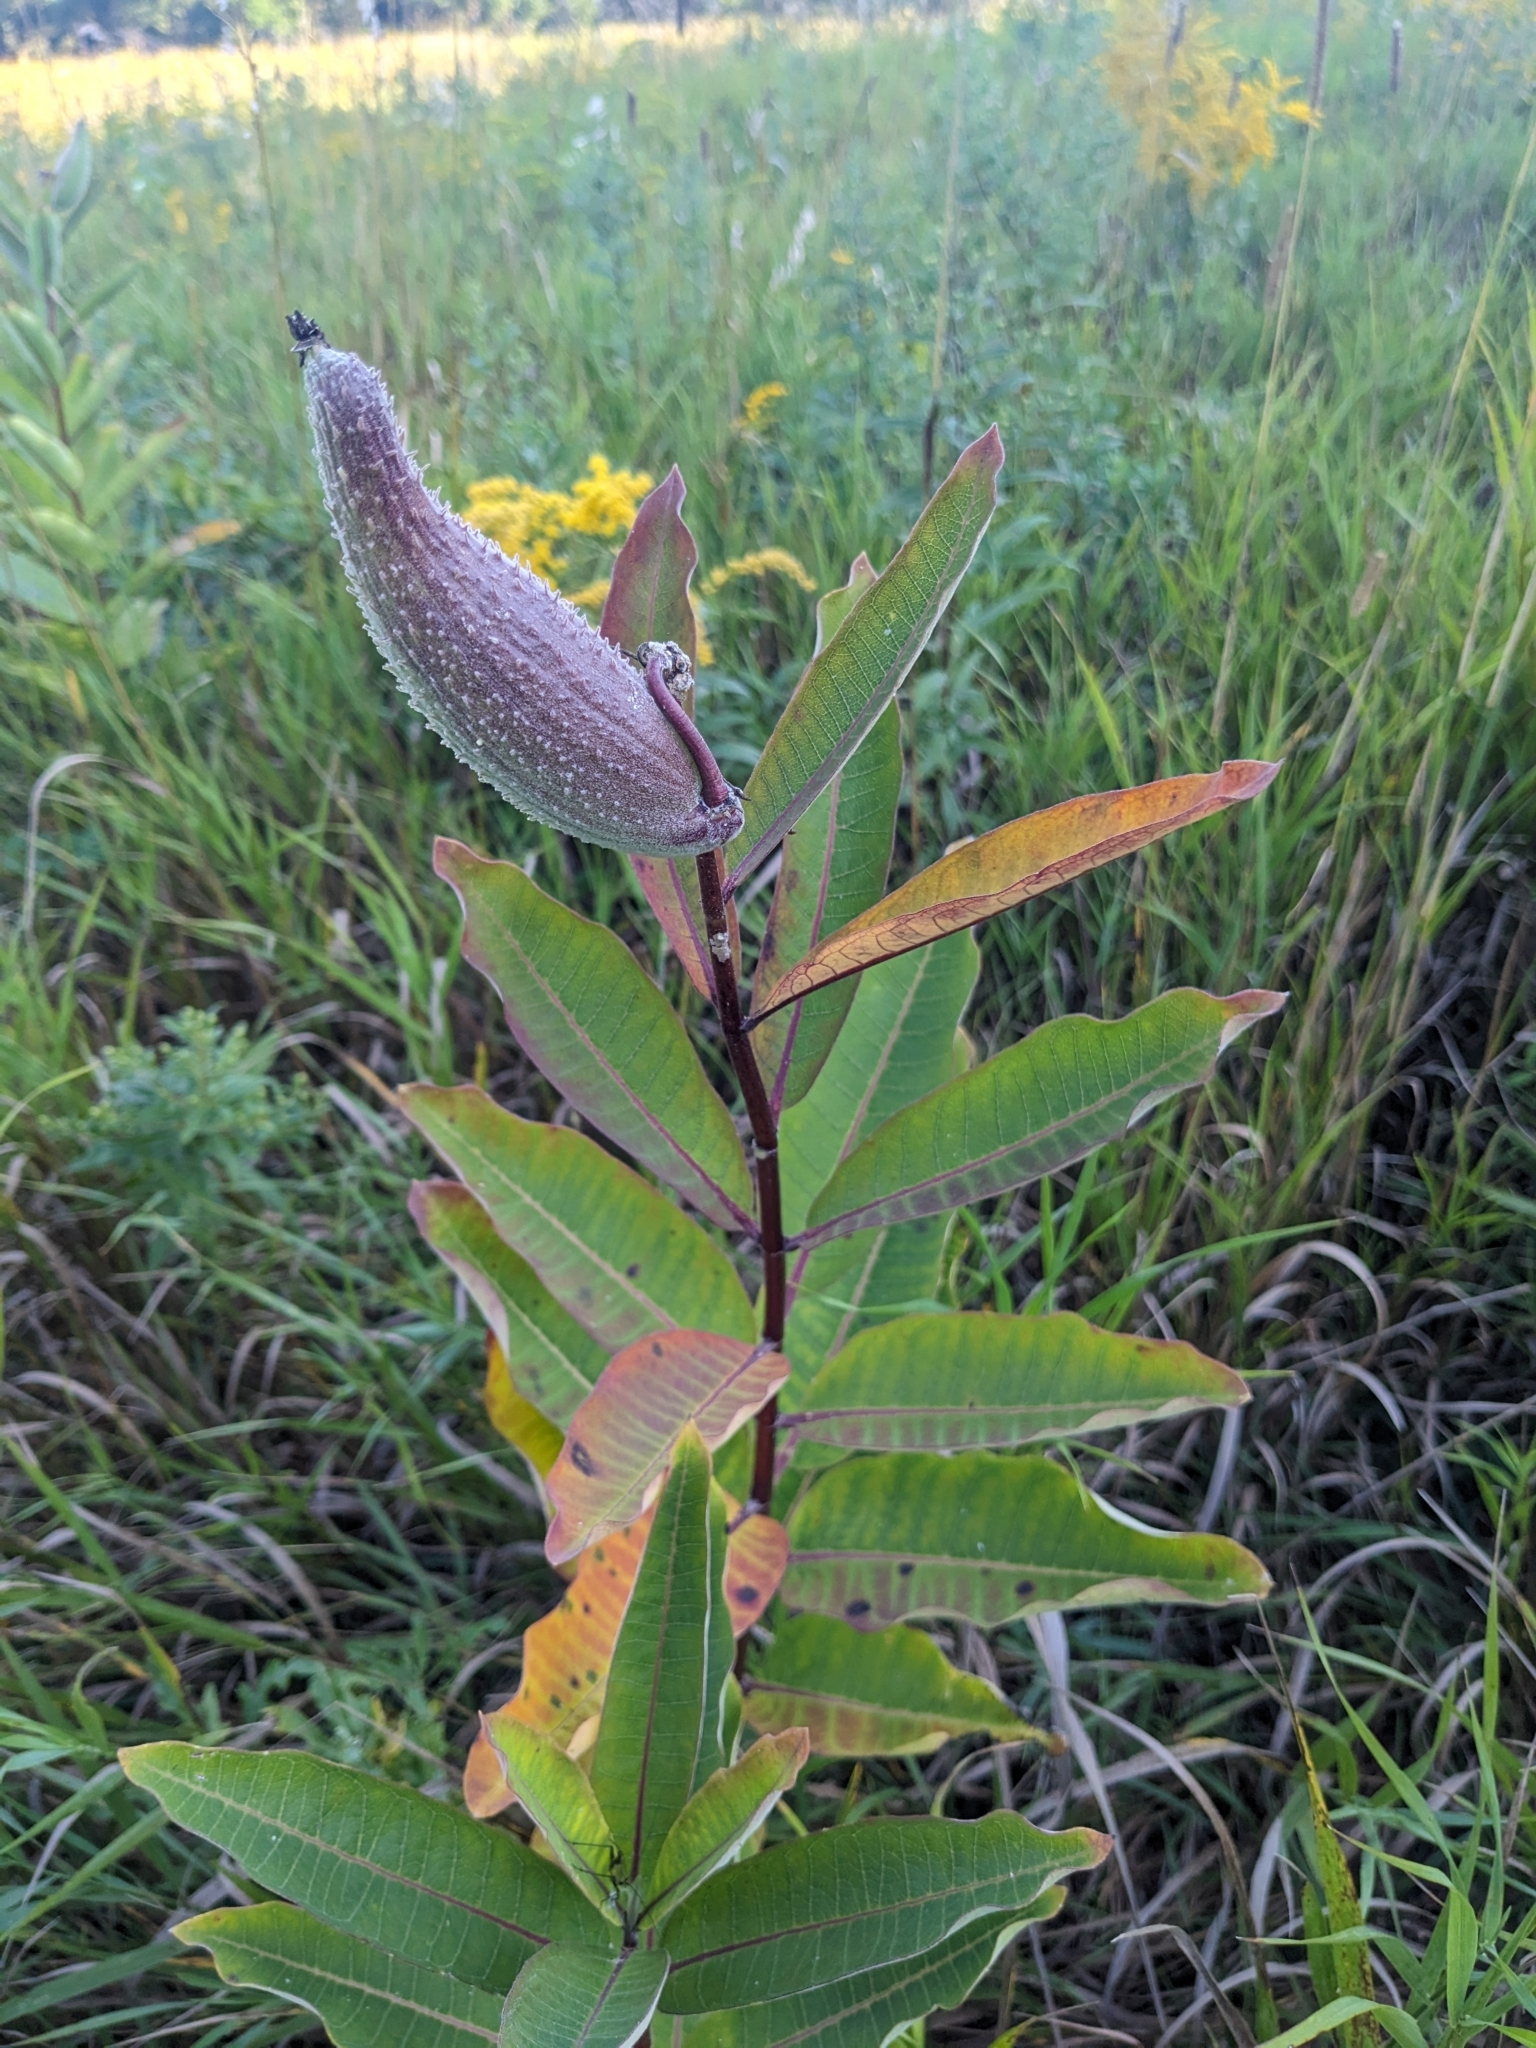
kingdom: Plantae
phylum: Tracheophyta
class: Magnoliopsida
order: Gentianales
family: Apocynaceae
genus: Asclepias
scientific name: Asclepias syriaca
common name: Common milkweed
